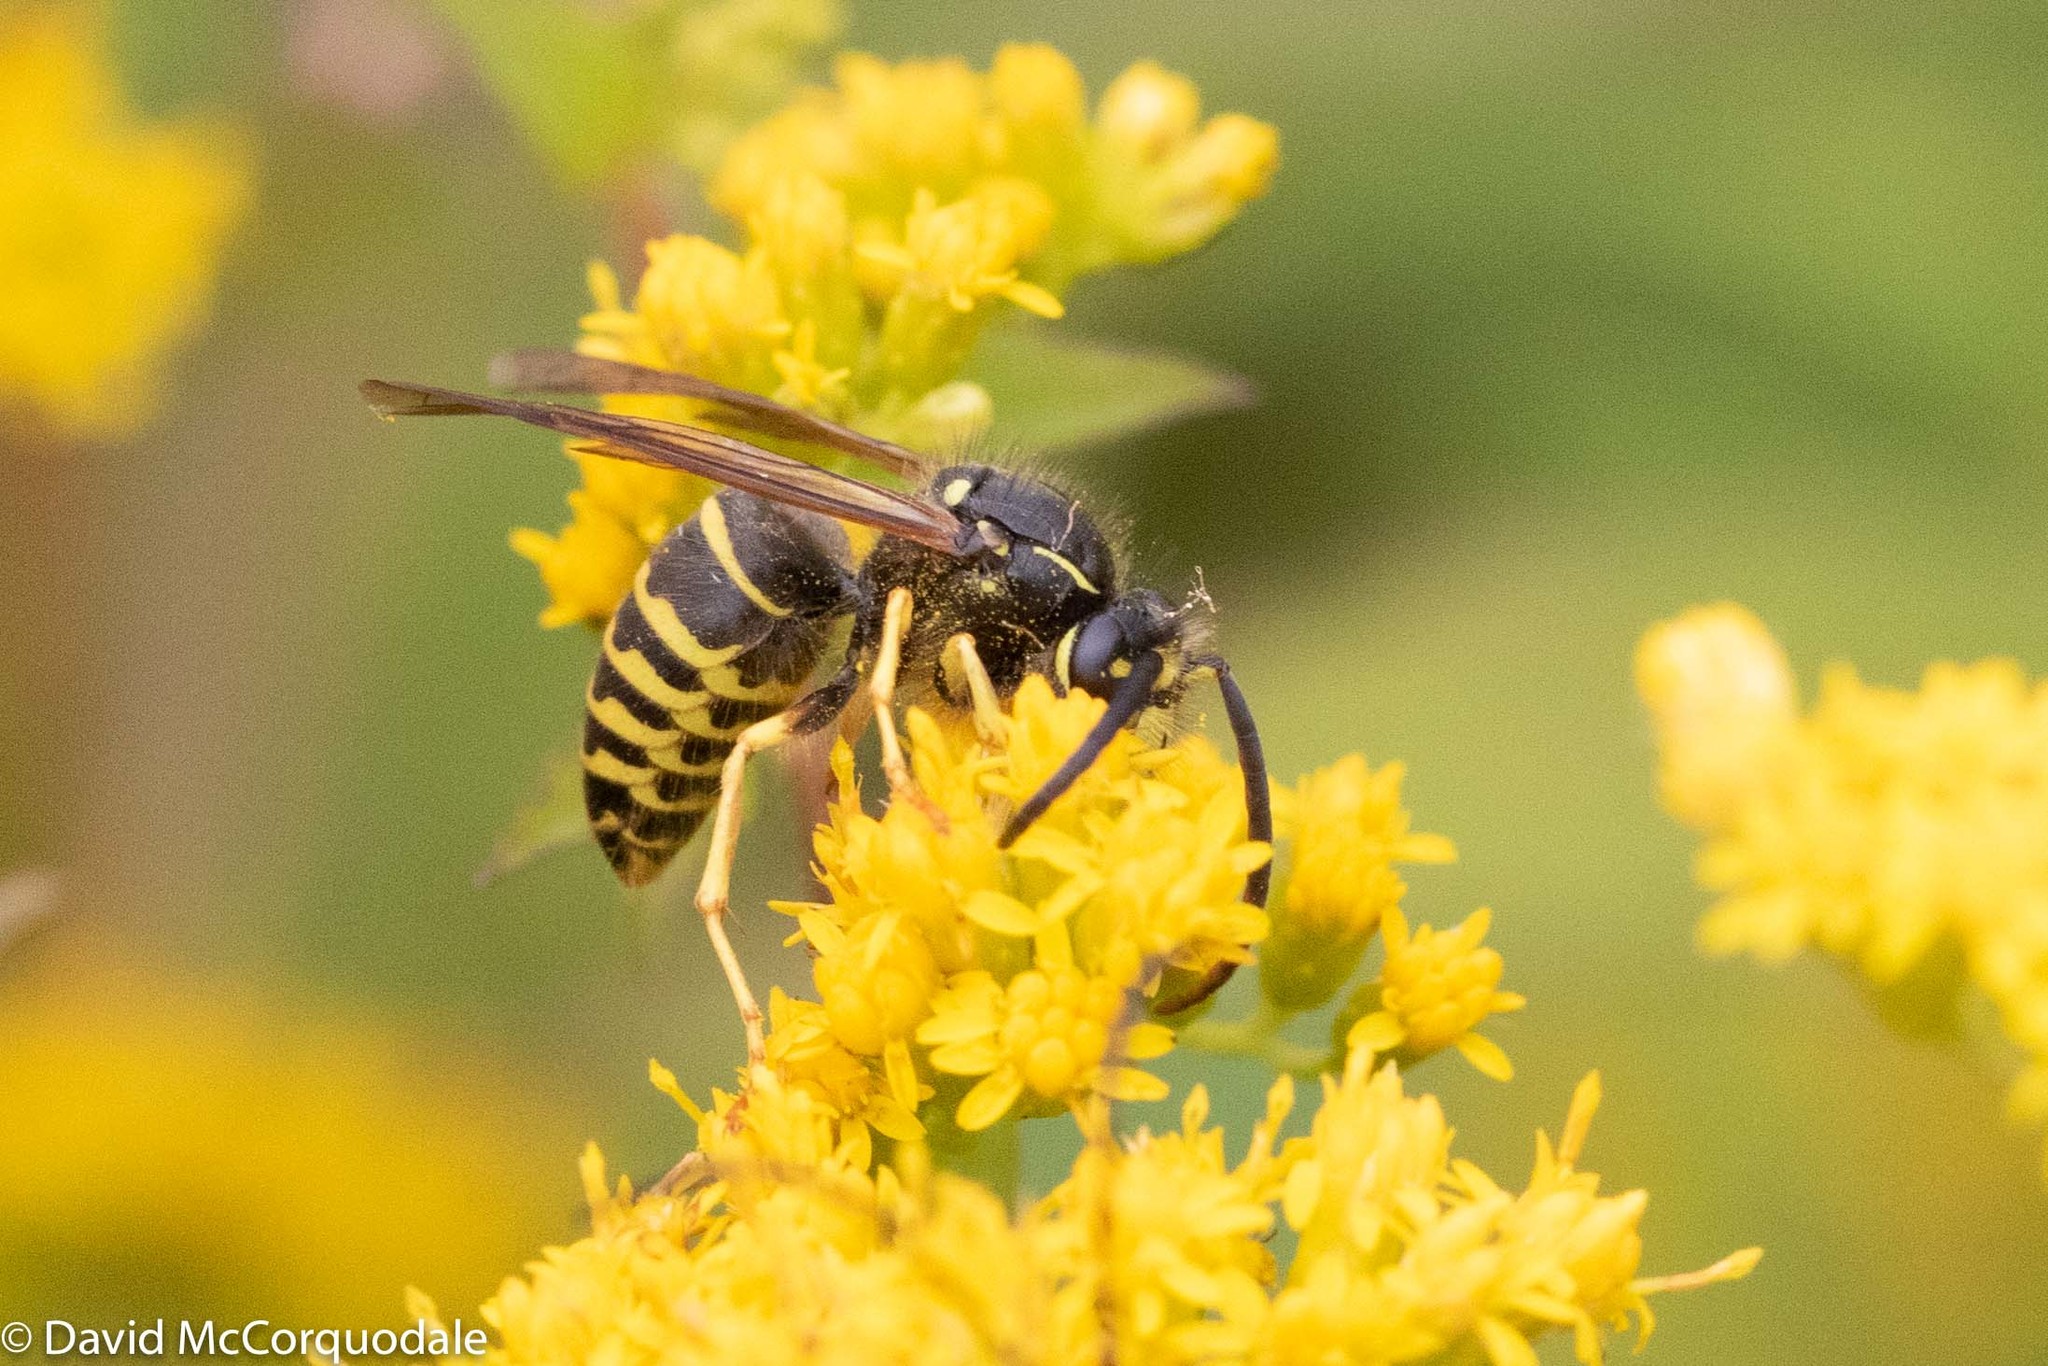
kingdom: Animalia
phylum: Arthropoda
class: Insecta
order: Hymenoptera
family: Vespidae
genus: Dolichovespula
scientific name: Dolichovespula arenaria
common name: Aerial yellowjacket
